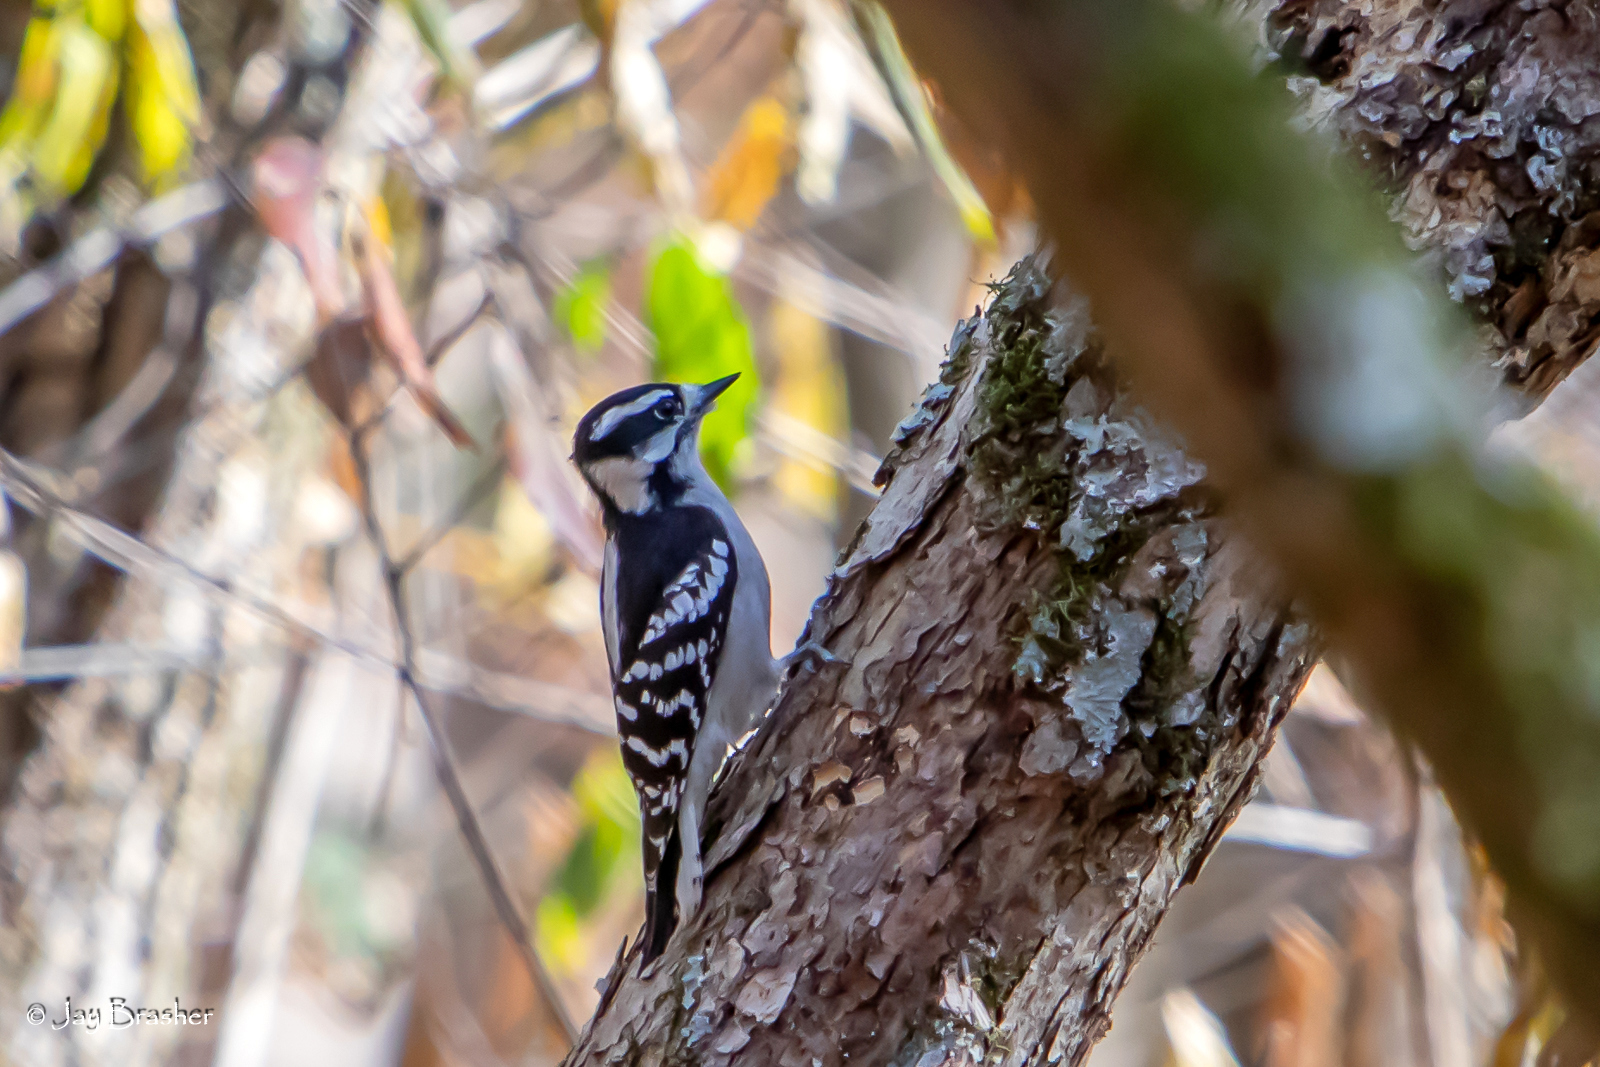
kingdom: Animalia
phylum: Chordata
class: Aves
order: Piciformes
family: Picidae
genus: Dryobates
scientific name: Dryobates pubescens
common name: Downy woodpecker
